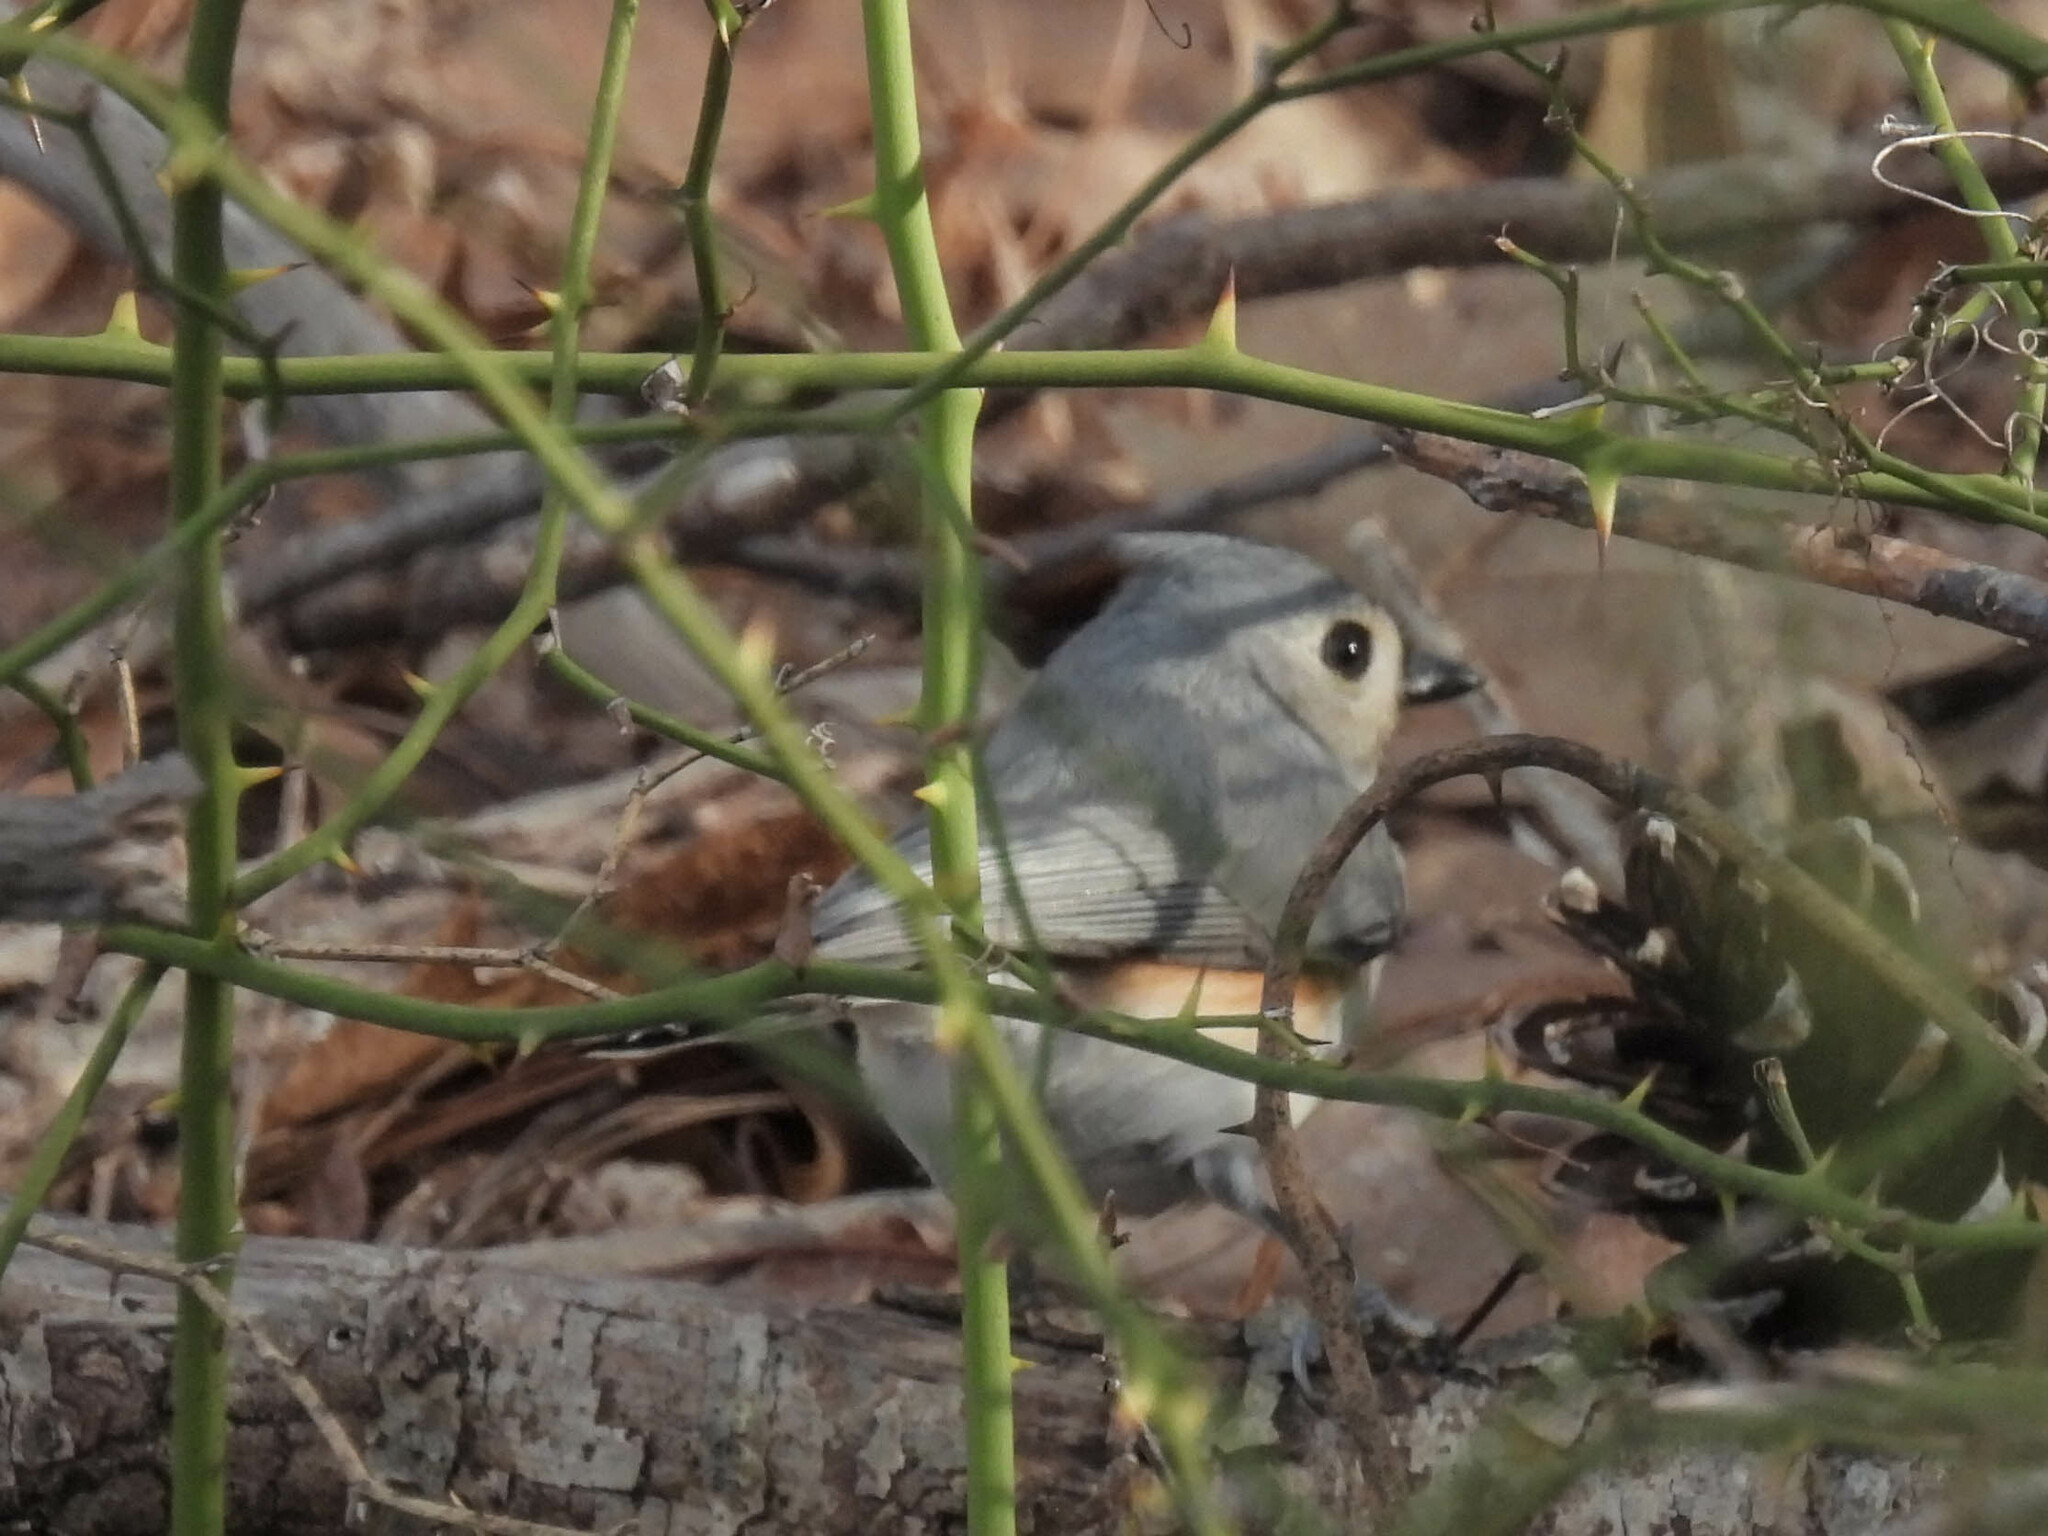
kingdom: Animalia
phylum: Chordata
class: Aves
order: Passeriformes
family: Paridae
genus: Baeolophus
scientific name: Baeolophus bicolor
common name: Tufted titmouse
